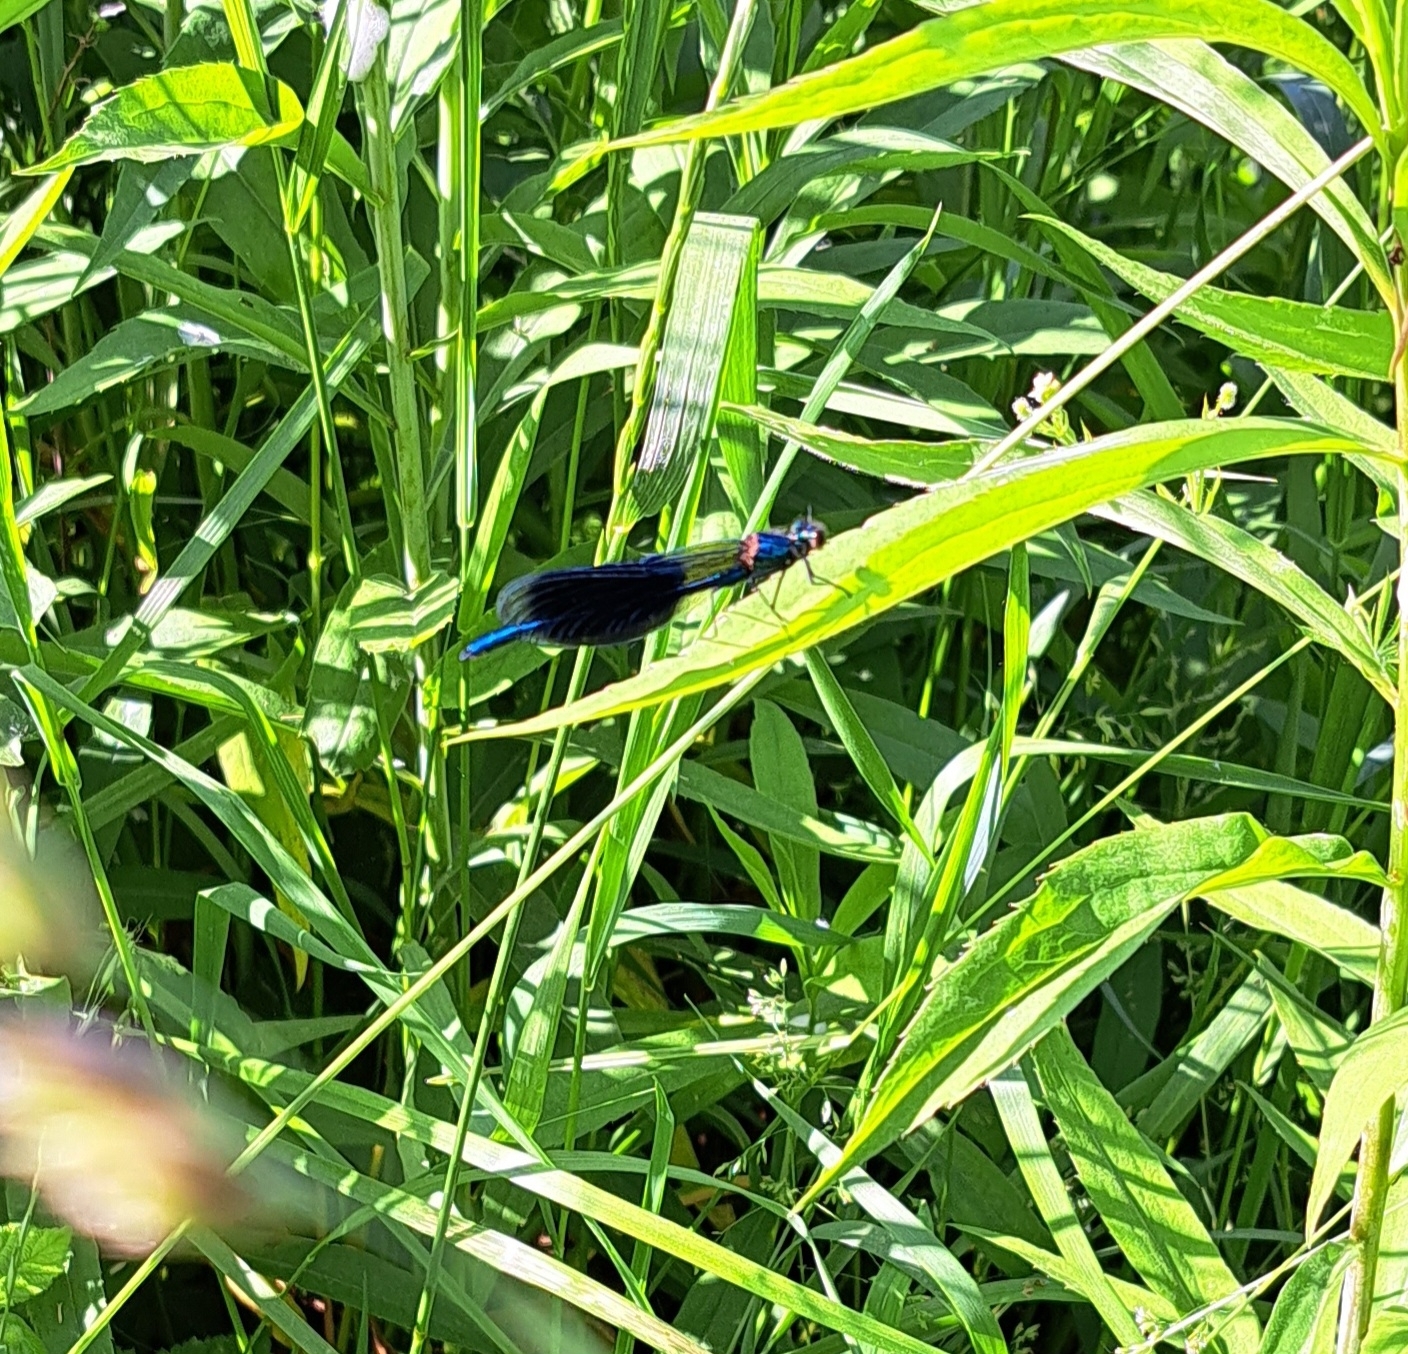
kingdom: Animalia
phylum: Arthropoda
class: Insecta
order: Odonata
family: Calopterygidae
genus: Calopteryx
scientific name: Calopteryx splendens
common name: Banded demoiselle
